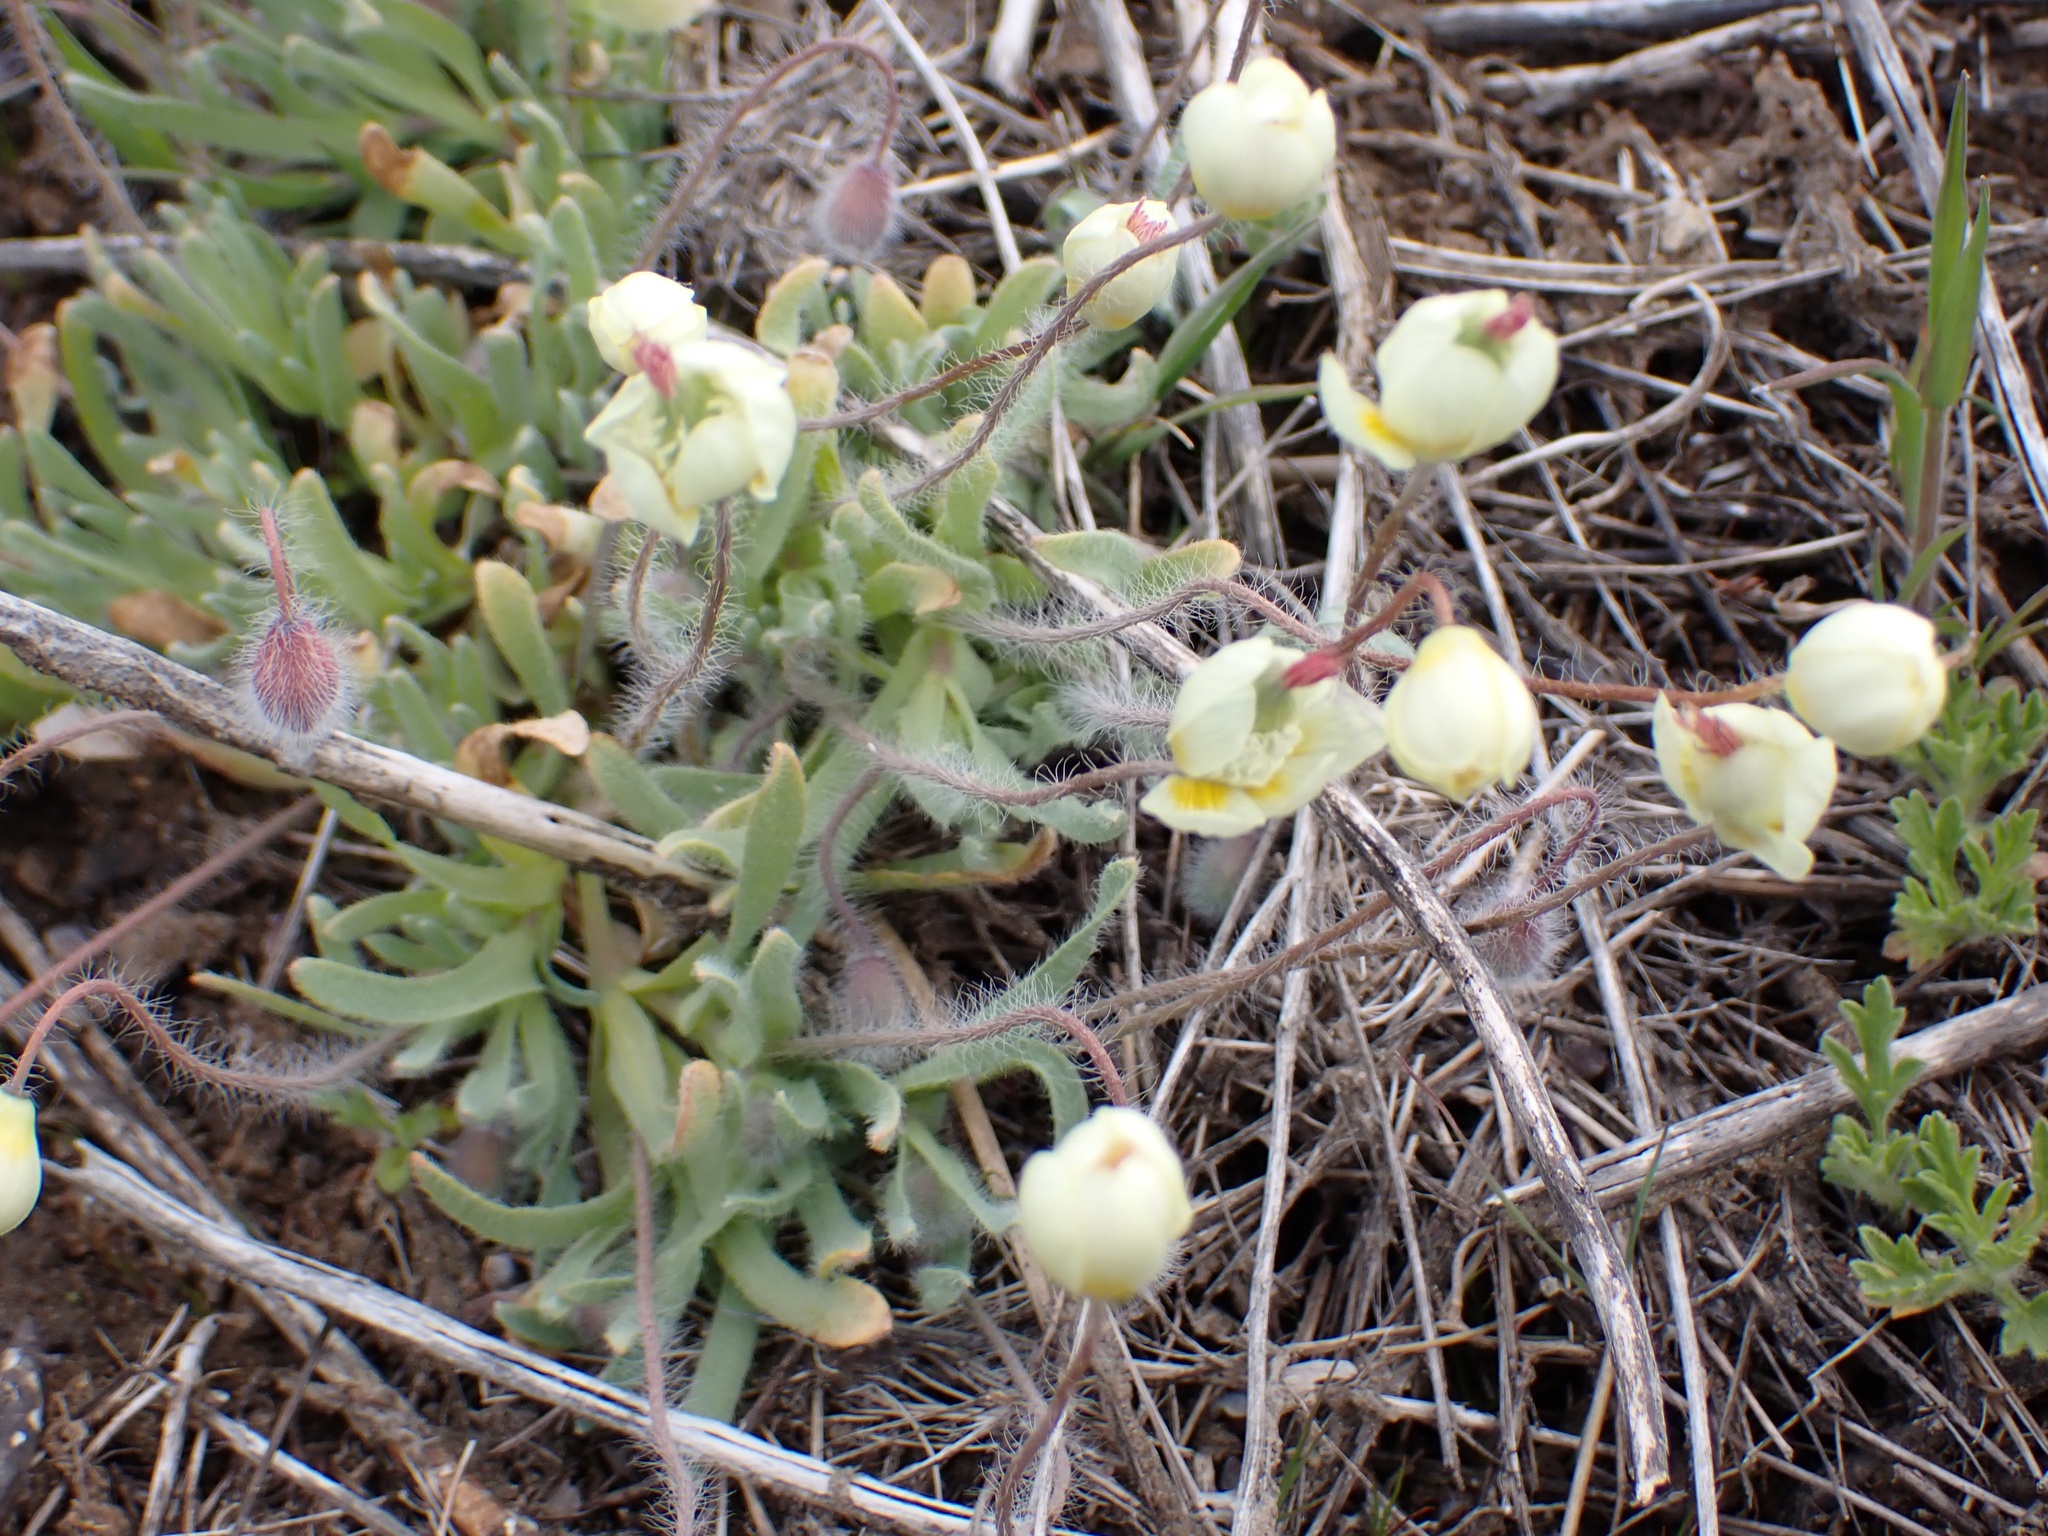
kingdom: Plantae
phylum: Tracheophyta
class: Magnoliopsida
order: Ranunculales
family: Papaveraceae
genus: Platystemon
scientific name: Platystemon californicus
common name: Cream-cups
